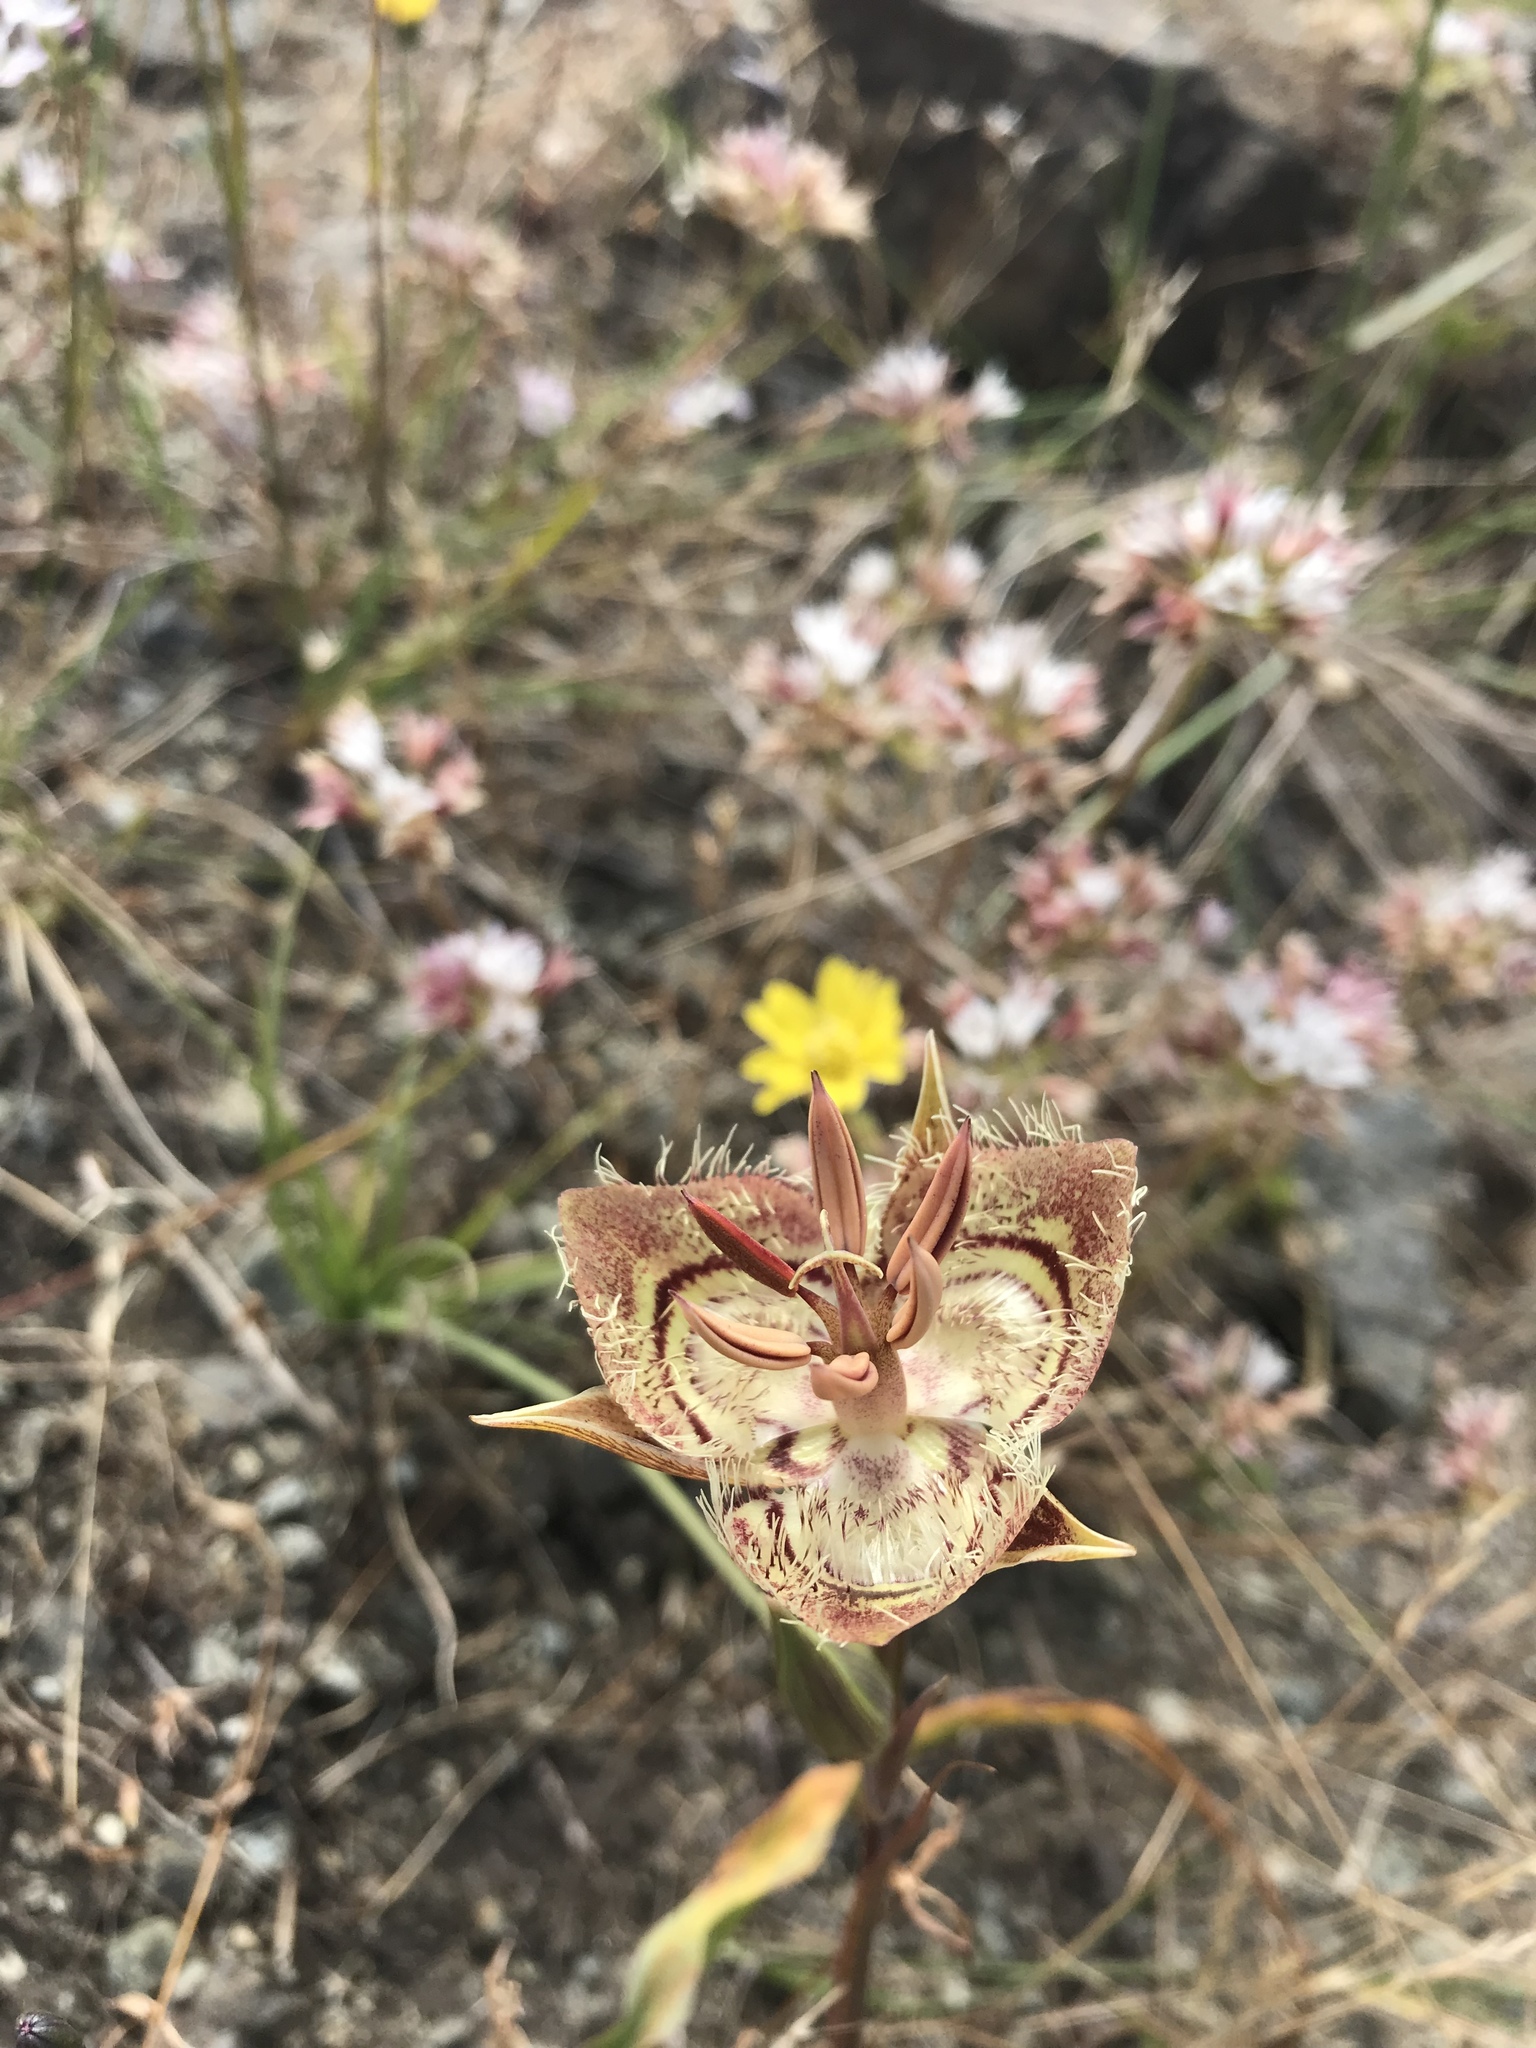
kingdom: Plantae
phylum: Tracheophyta
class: Liliopsida
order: Liliales
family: Liliaceae
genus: Calochortus
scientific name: Calochortus tiburonensis
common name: Tiburon mariposa-lily
